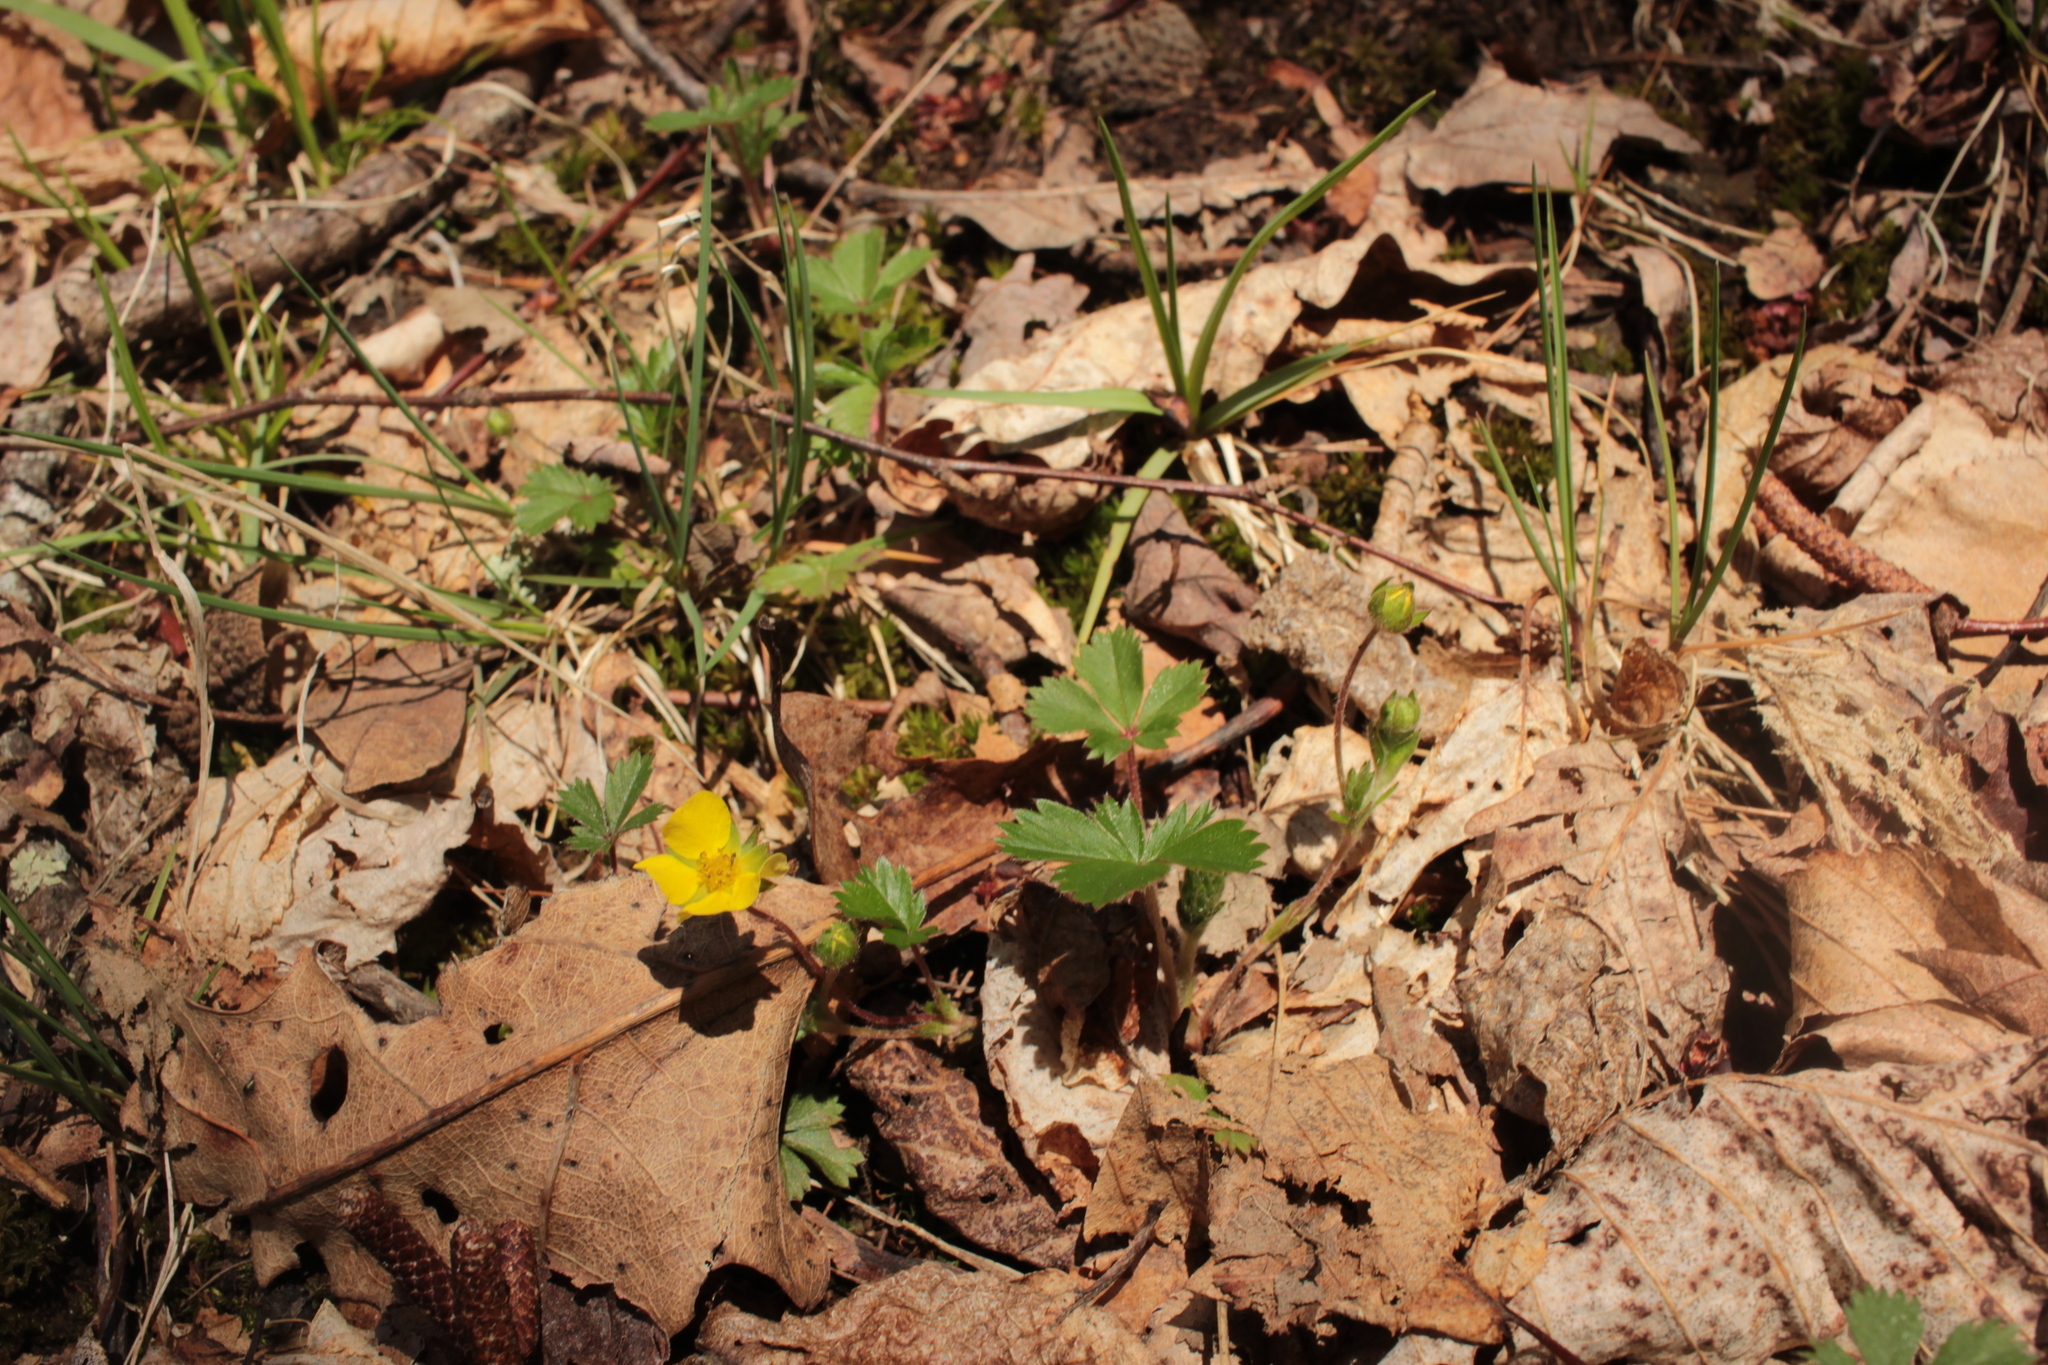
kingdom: Plantae
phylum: Tracheophyta
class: Magnoliopsida
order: Rosales
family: Rosaceae
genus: Potentilla
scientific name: Potentilla canadensis
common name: Canada cinquefoil
